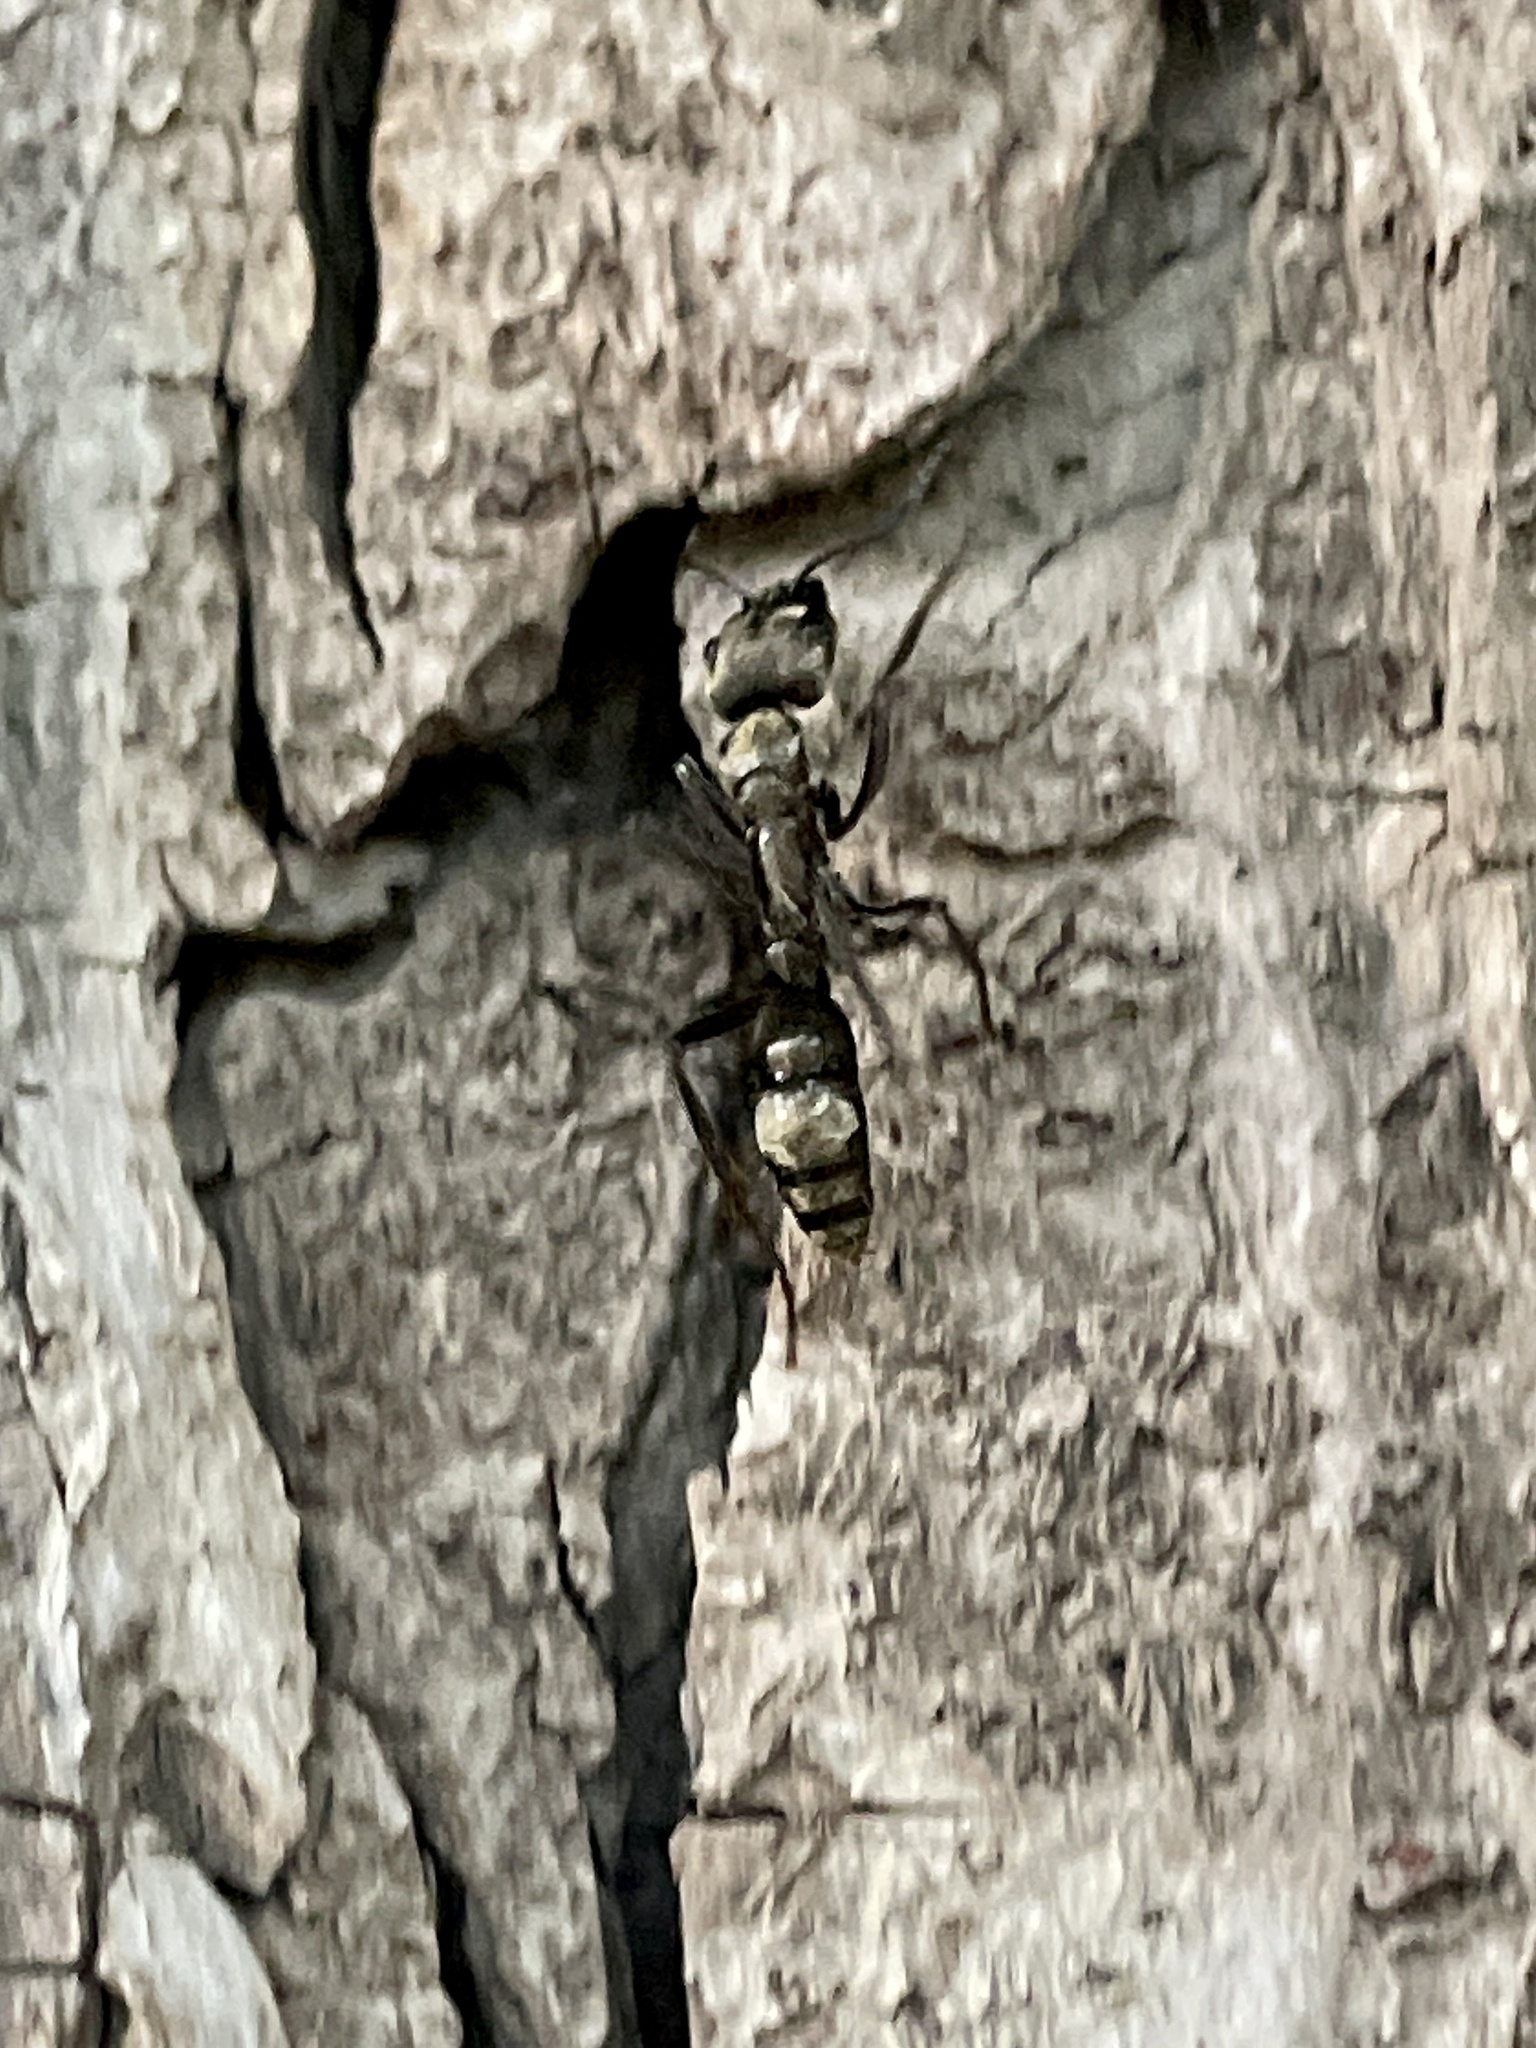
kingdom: Animalia
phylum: Arthropoda
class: Insecta
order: Hymenoptera
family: Formicidae
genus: Pachycondyla
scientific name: Pachycondyla villosa
